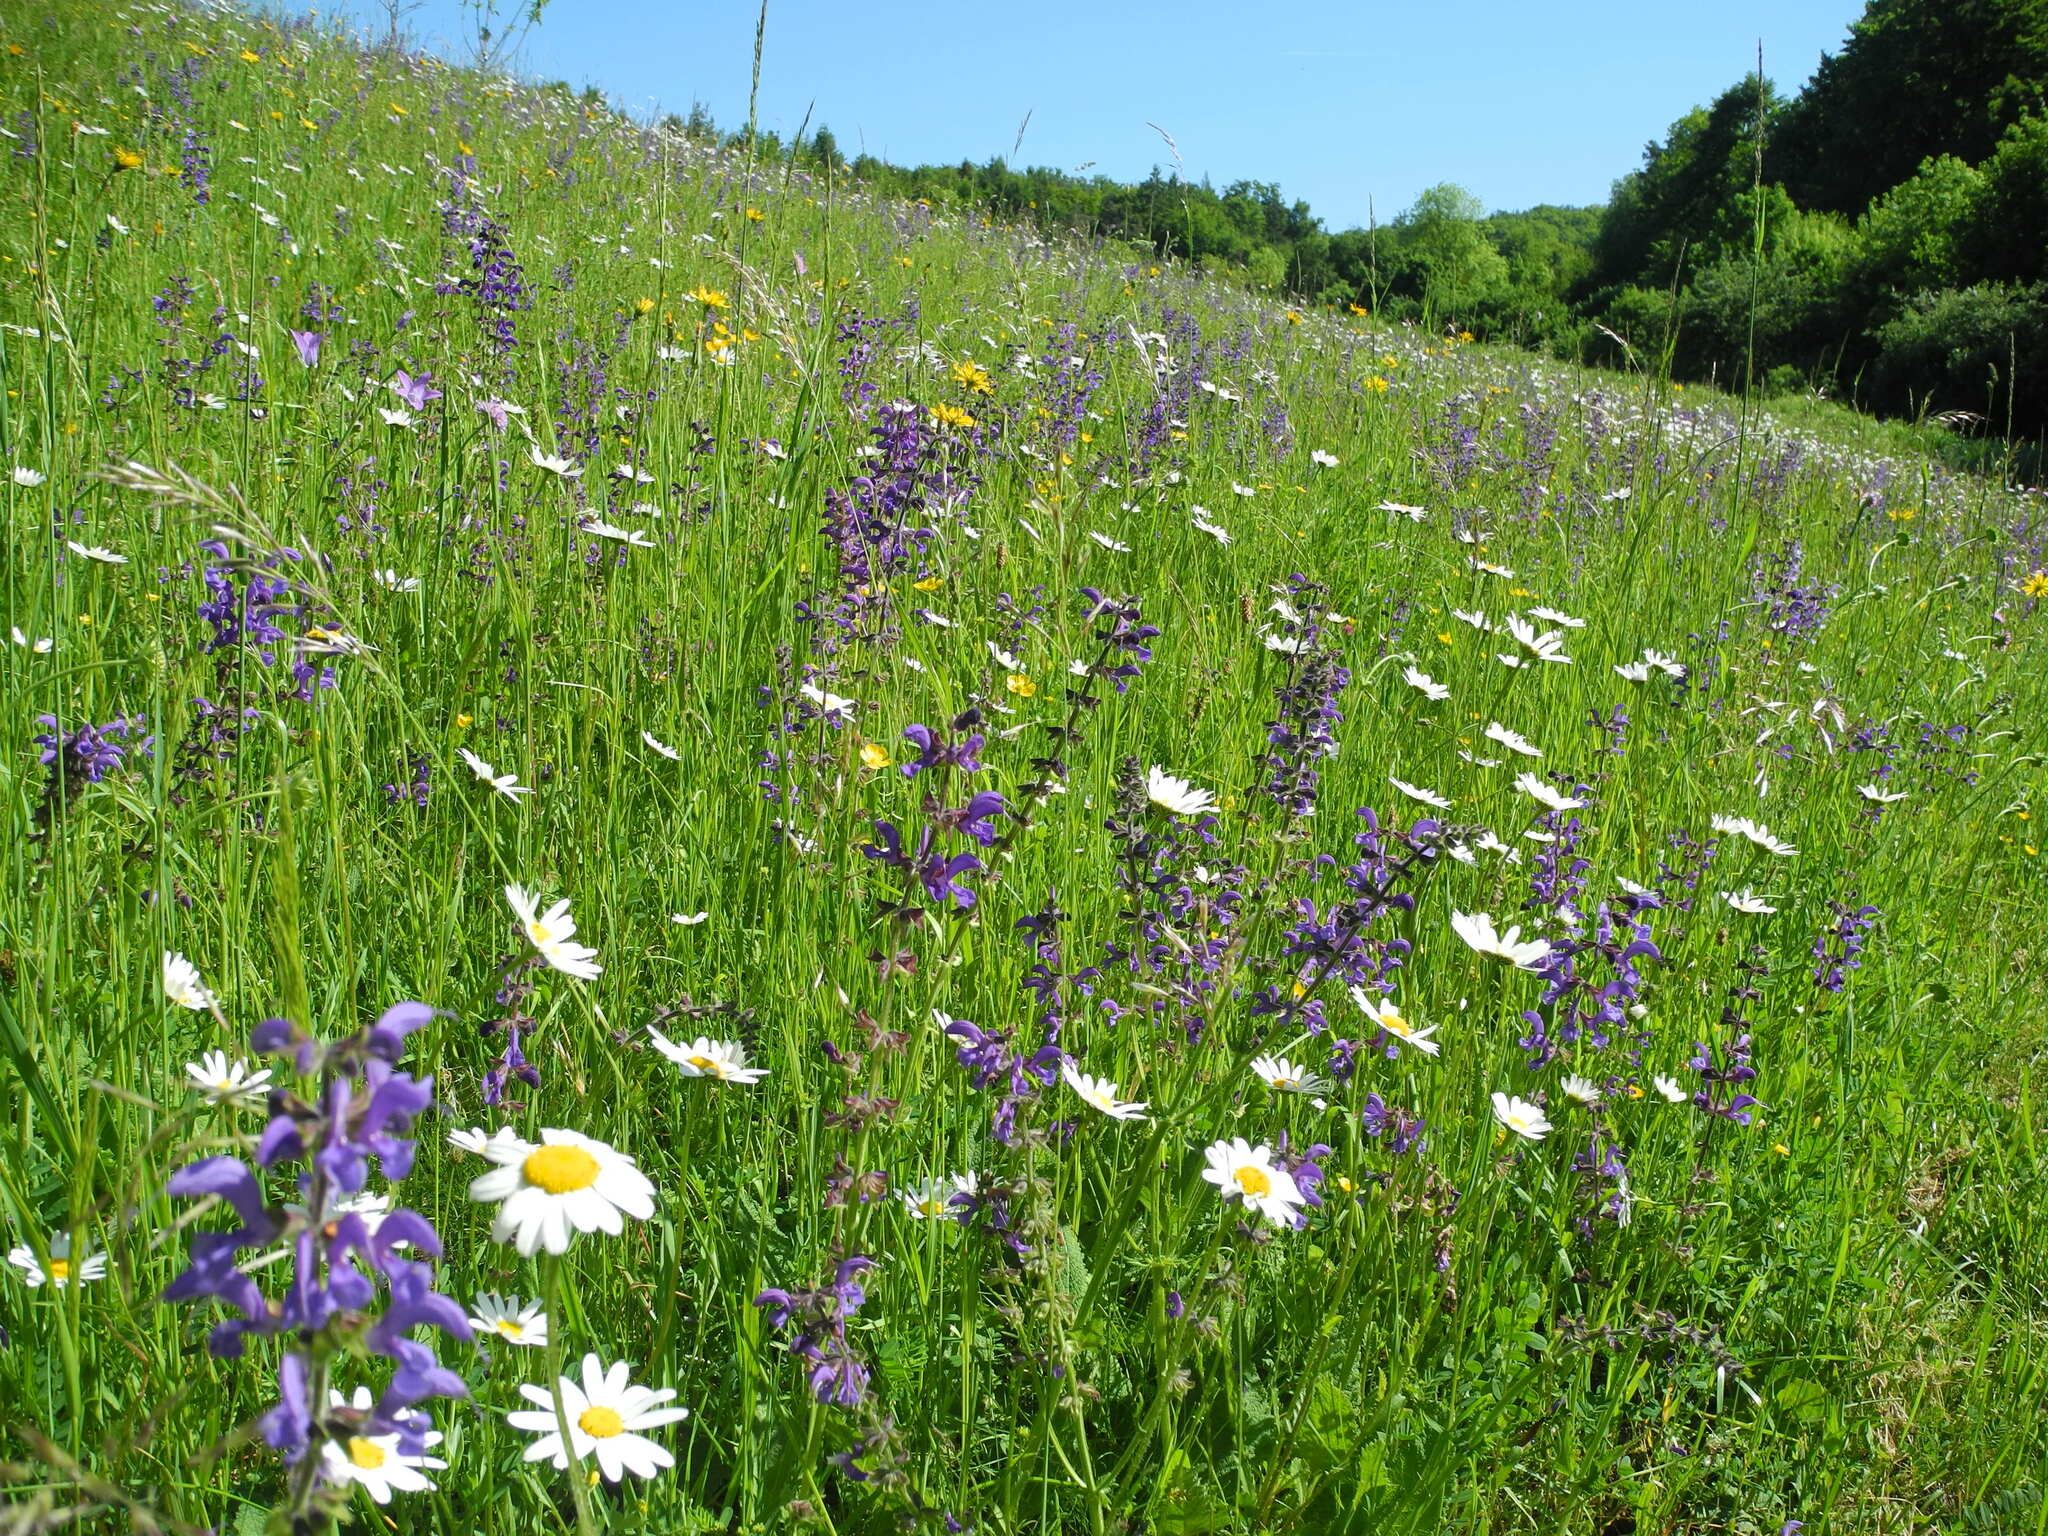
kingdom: Plantae
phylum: Tracheophyta
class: Magnoliopsida
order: Lamiales
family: Lamiaceae
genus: Salvia
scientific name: Salvia pratensis
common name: Meadow sage
